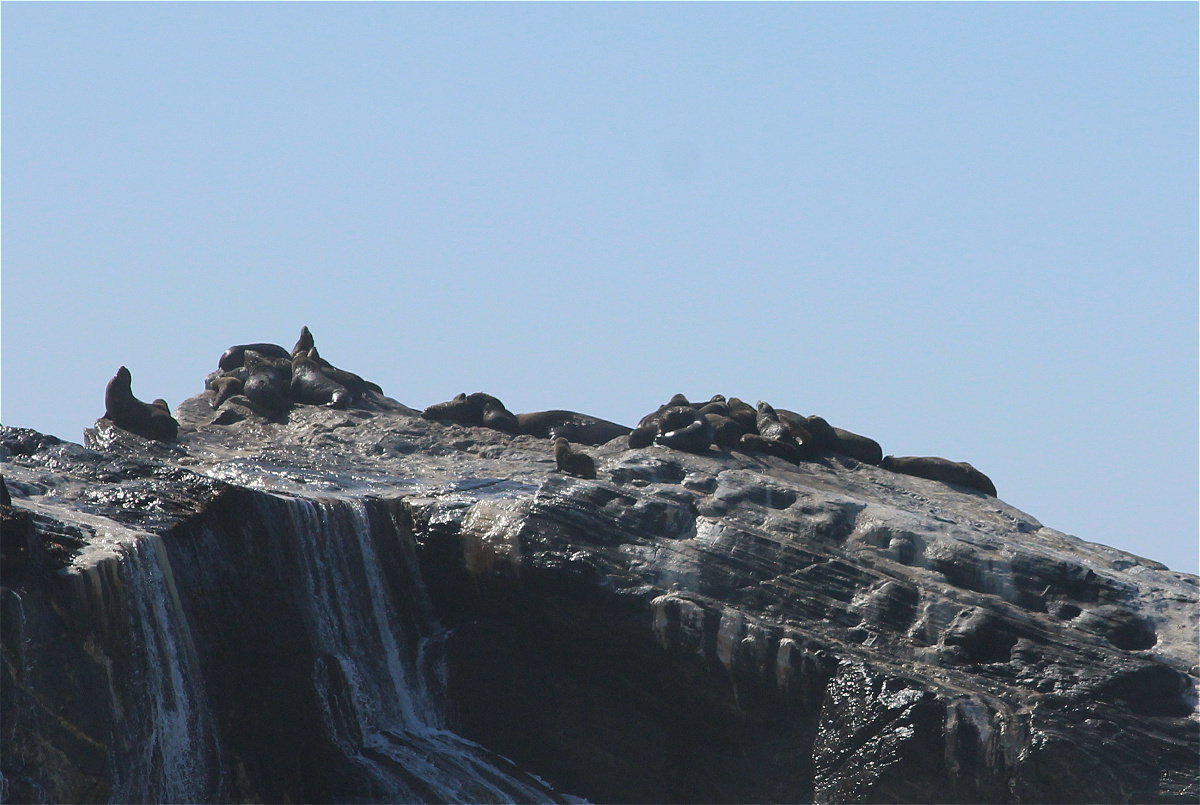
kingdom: Animalia
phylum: Chordata
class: Mammalia
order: Carnivora
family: Otariidae
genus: Arctocephalus
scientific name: Arctocephalus pusillus
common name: Brown fur seal
